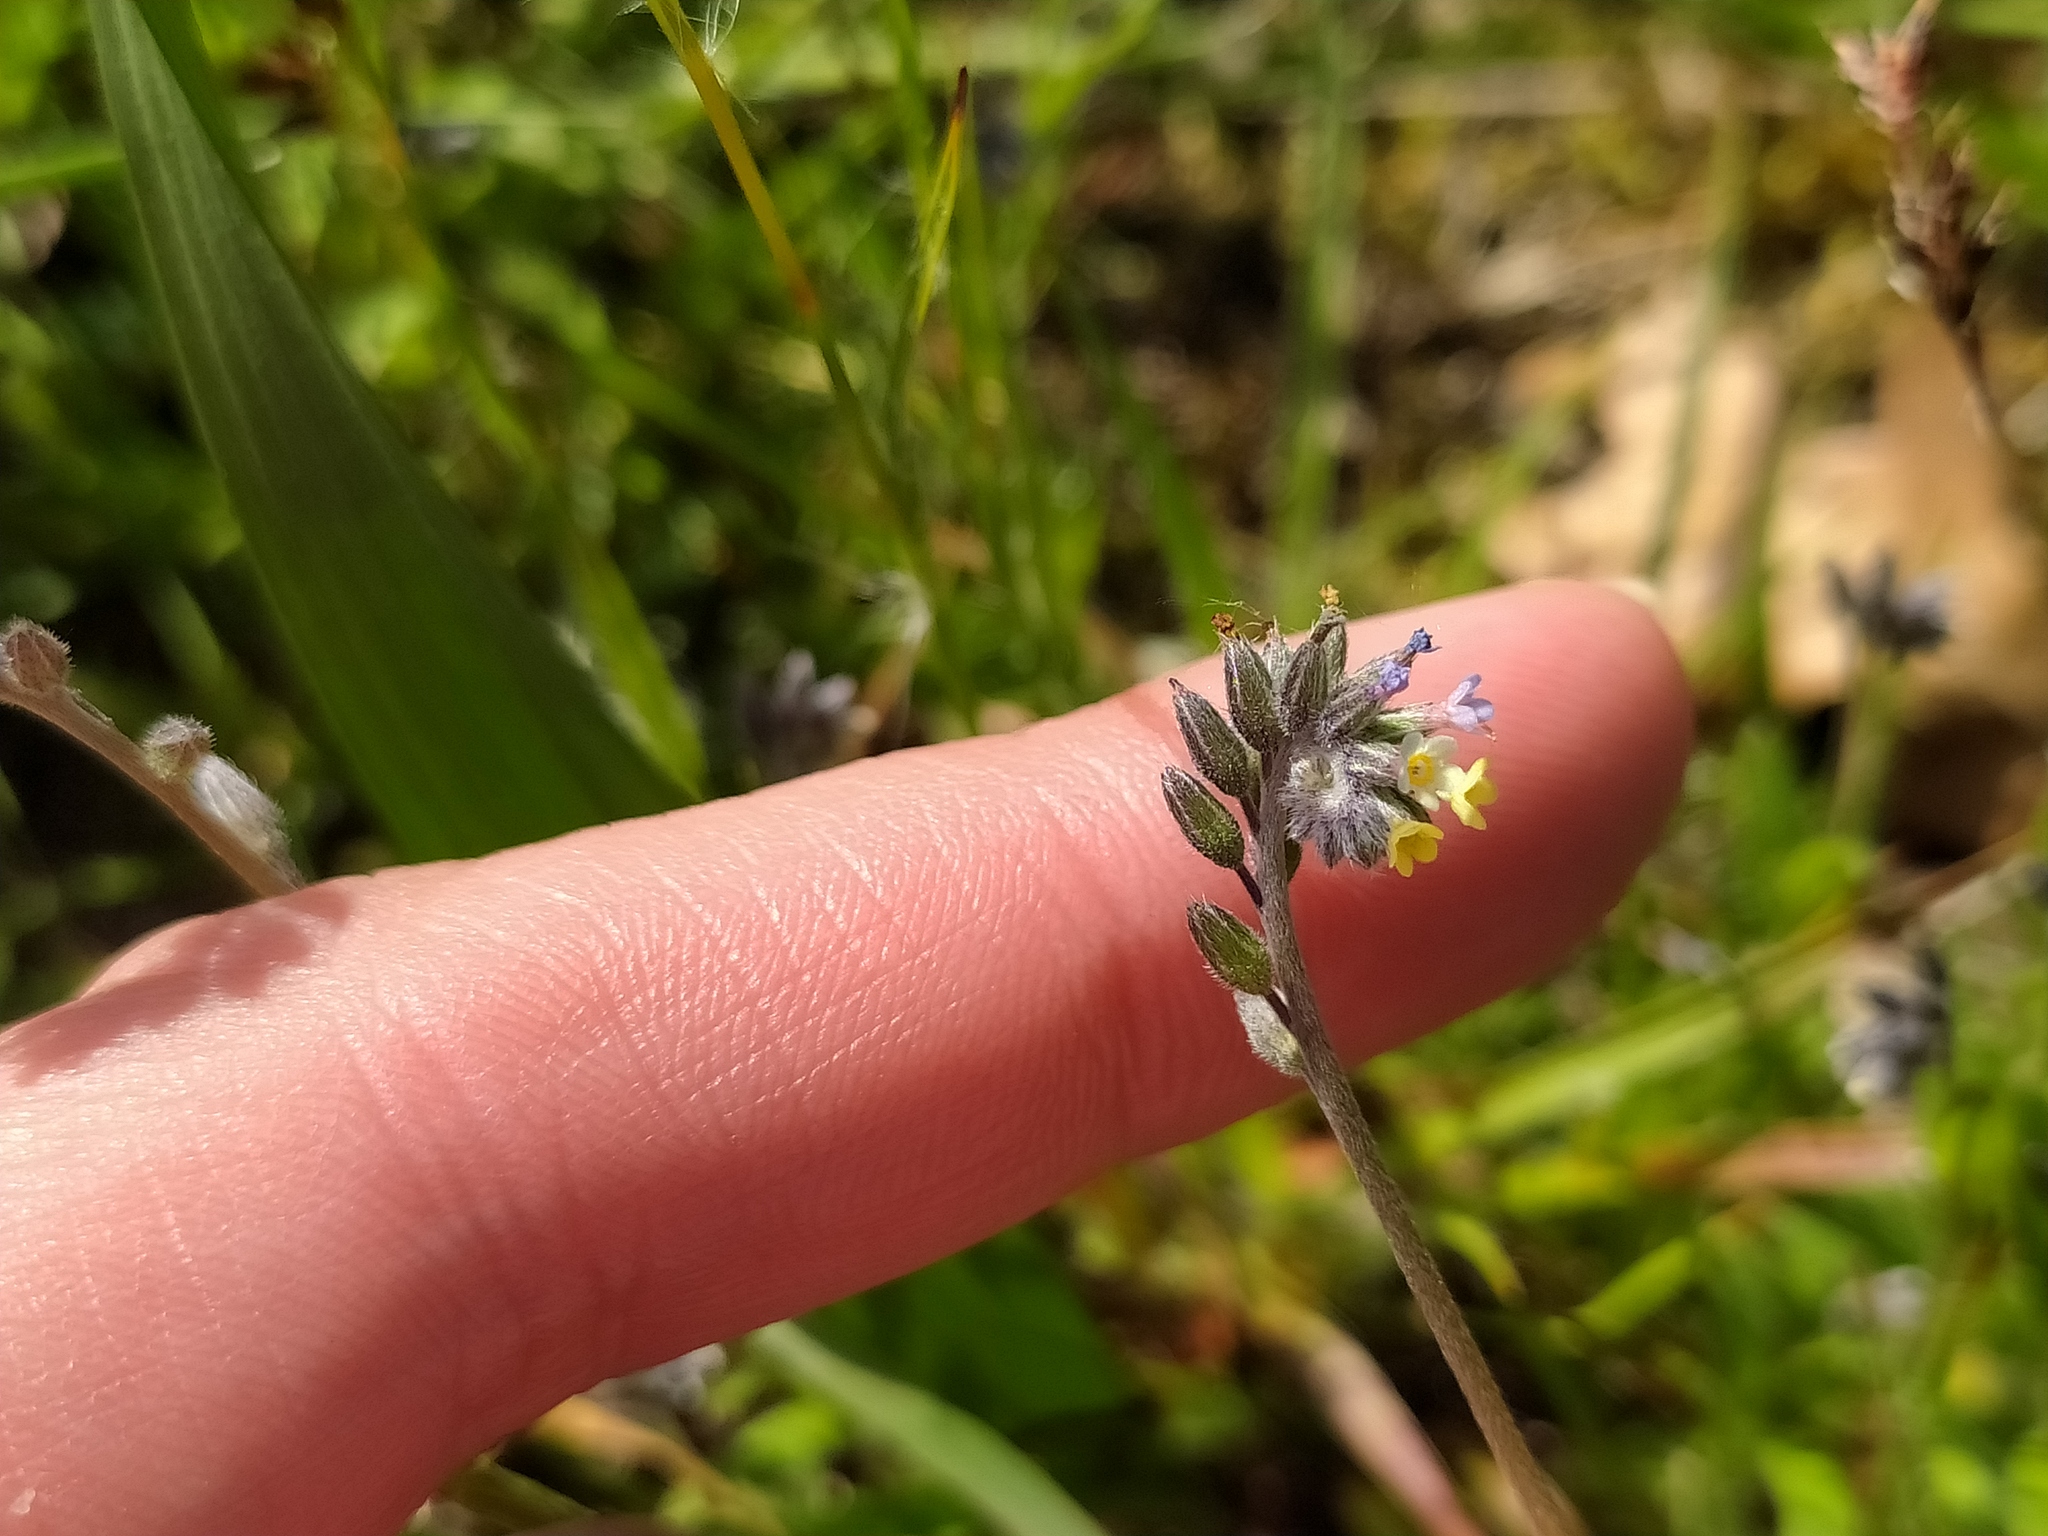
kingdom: Plantae
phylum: Tracheophyta
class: Magnoliopsida
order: Boraginales
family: Boraginaceae
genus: Myosotis
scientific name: Myosotis discolor
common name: Changing forget-me-not
